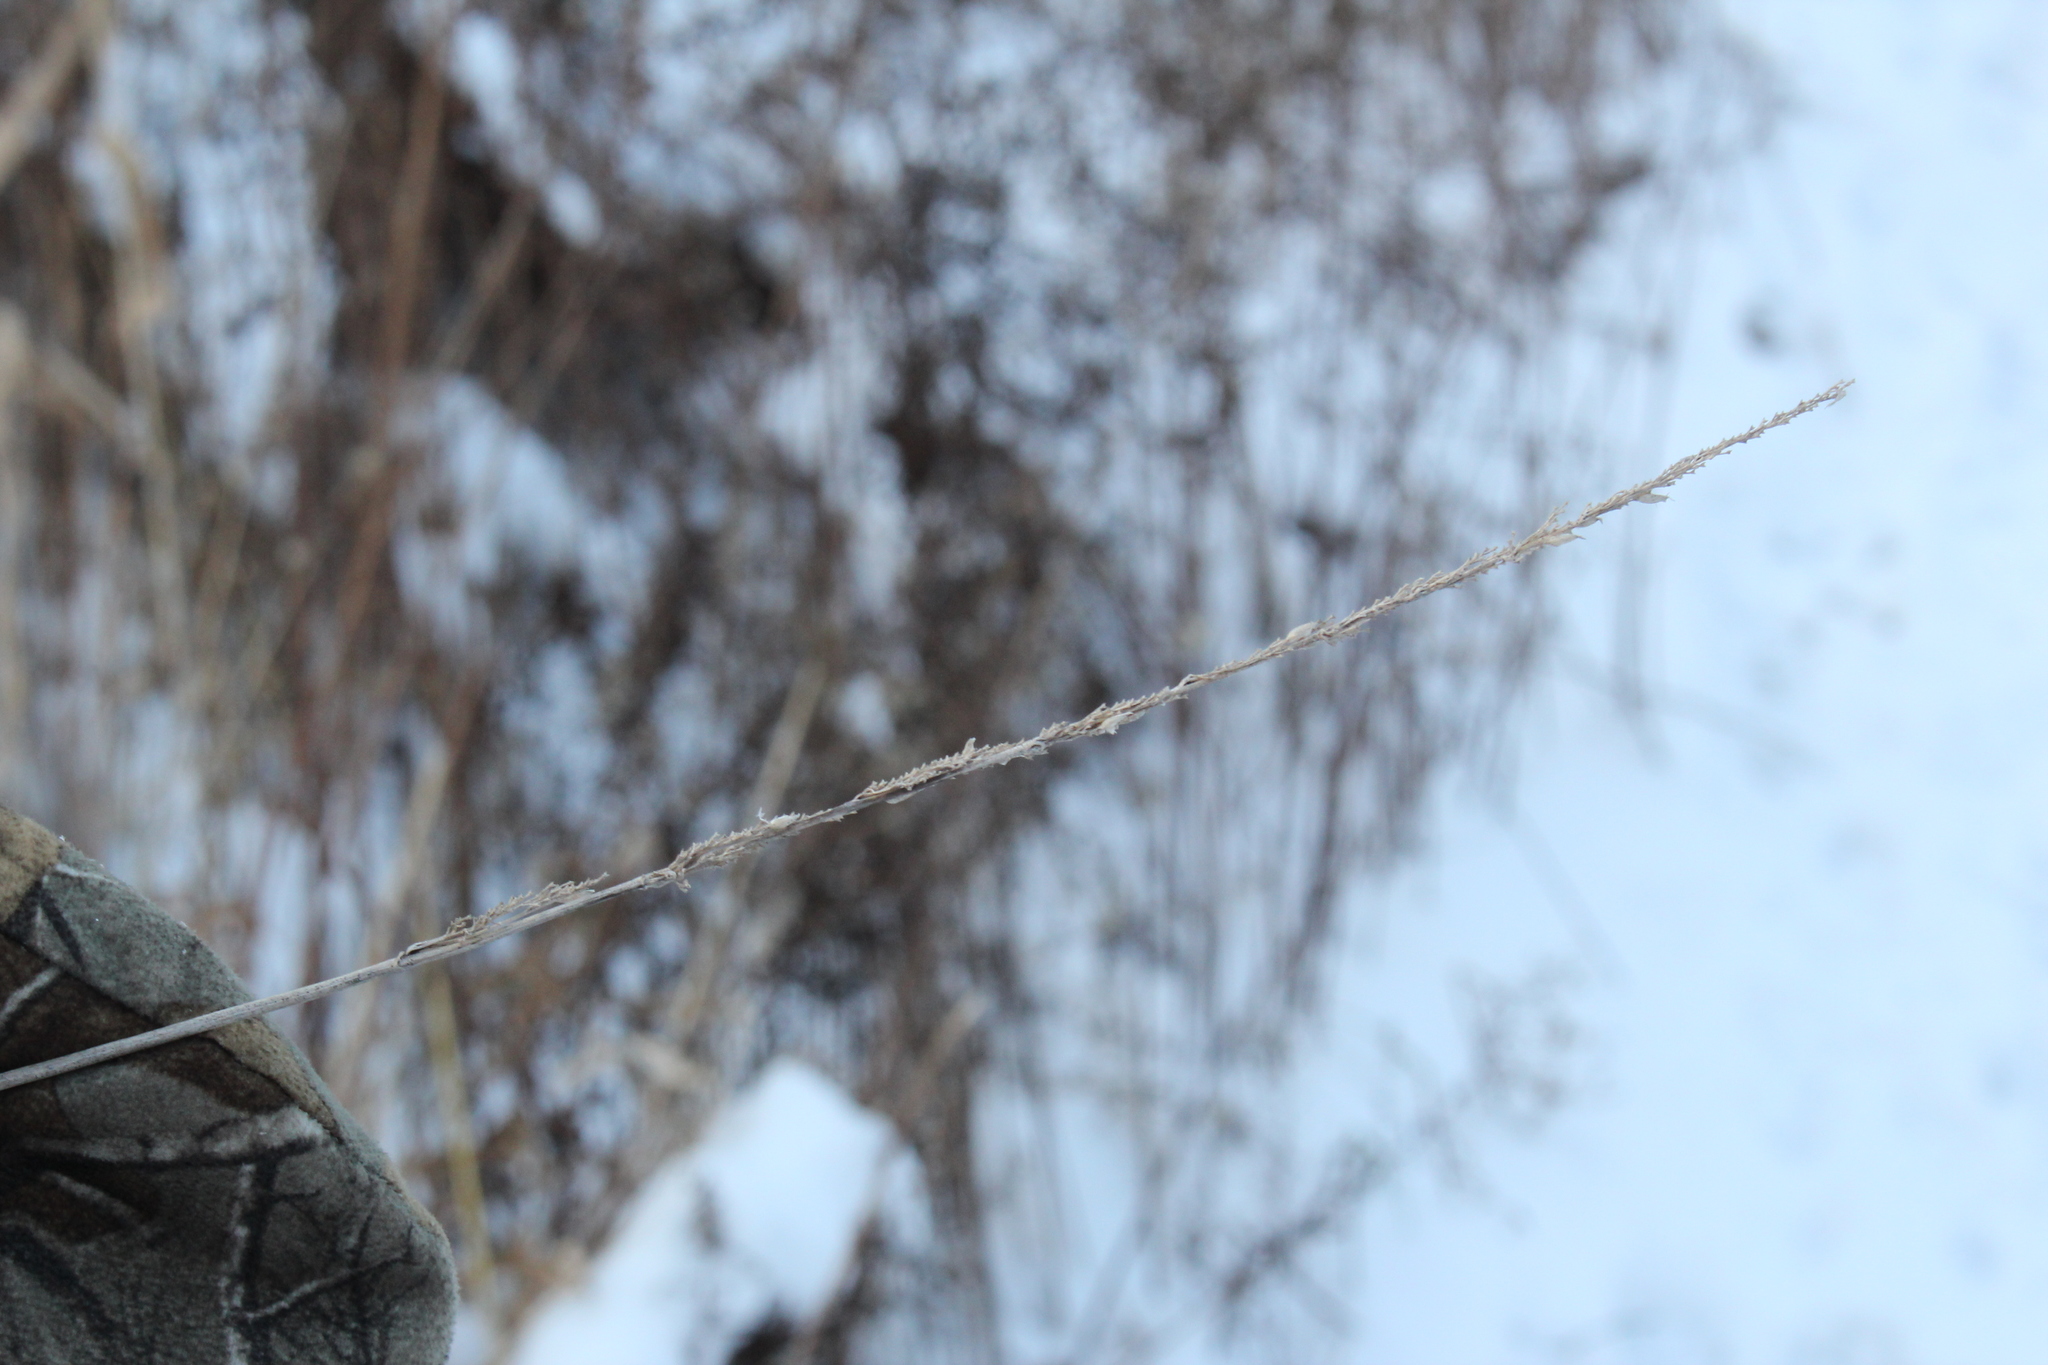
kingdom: Plantae
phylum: Tracheophyta
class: Liliopsida
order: Poales
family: Poaceae
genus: Phalaris
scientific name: Phalaris arundinacea
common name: Reed canary-grass
